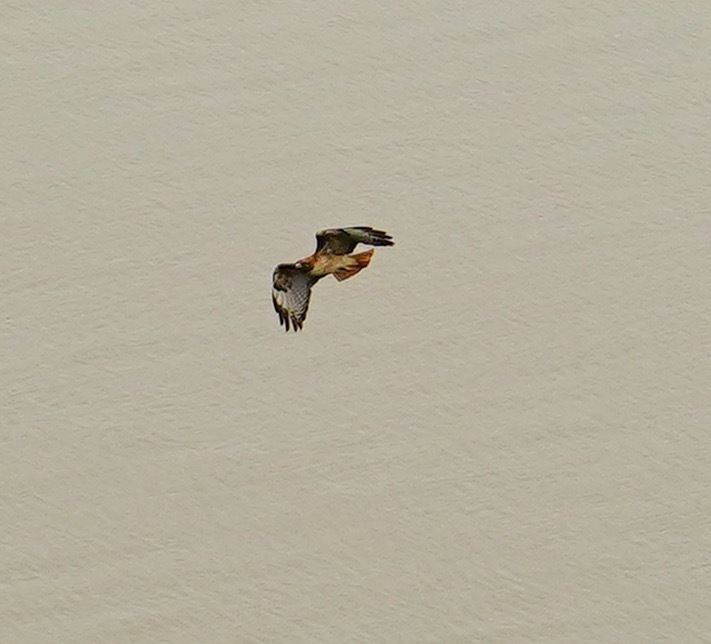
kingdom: Animalia
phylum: Chordata
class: Aves
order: Accipitriformes
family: Accipitridae
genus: Buteo
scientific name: Buteo jamaicensis
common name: Red-tailed hawk
